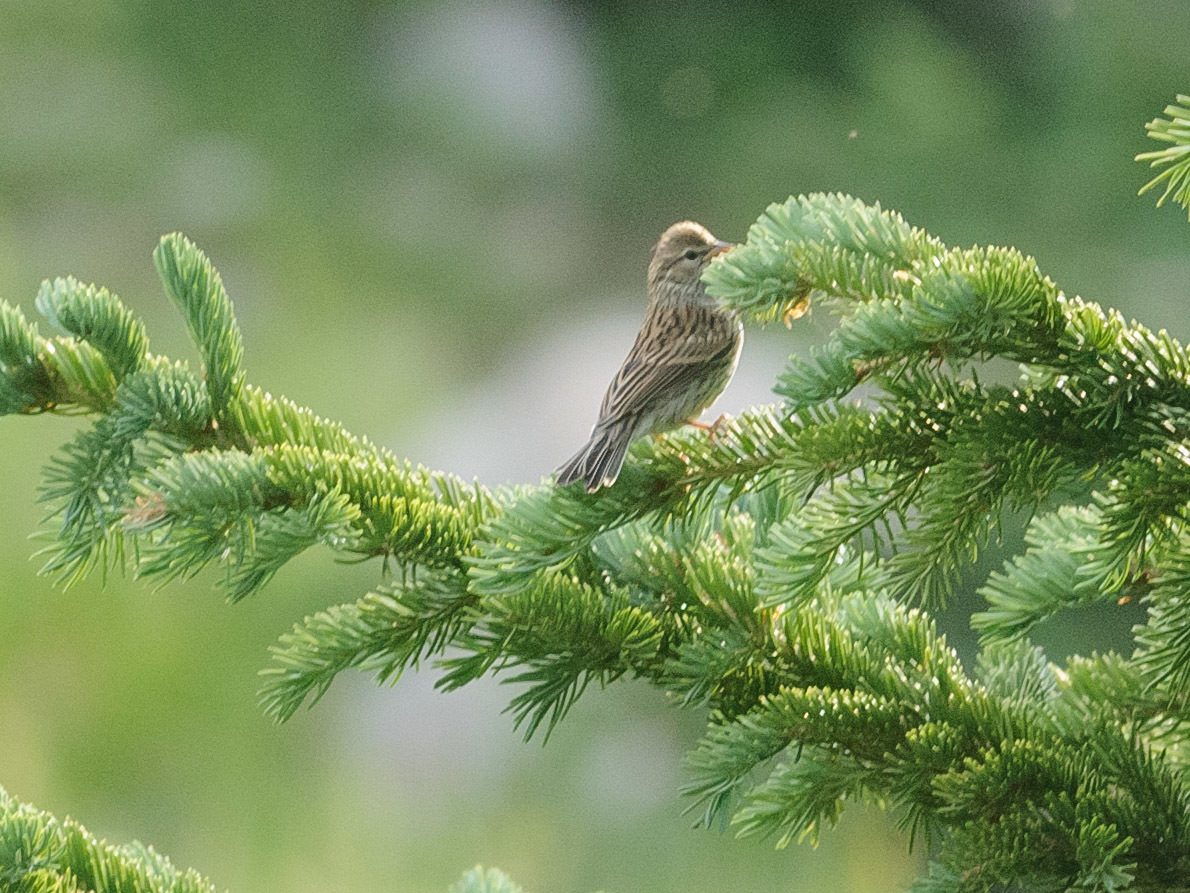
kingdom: Animalia
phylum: Chordata
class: Aves
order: Passeriformes
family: Passerellidae
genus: Spizella
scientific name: Spizella passerina
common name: Chipping sparrow
